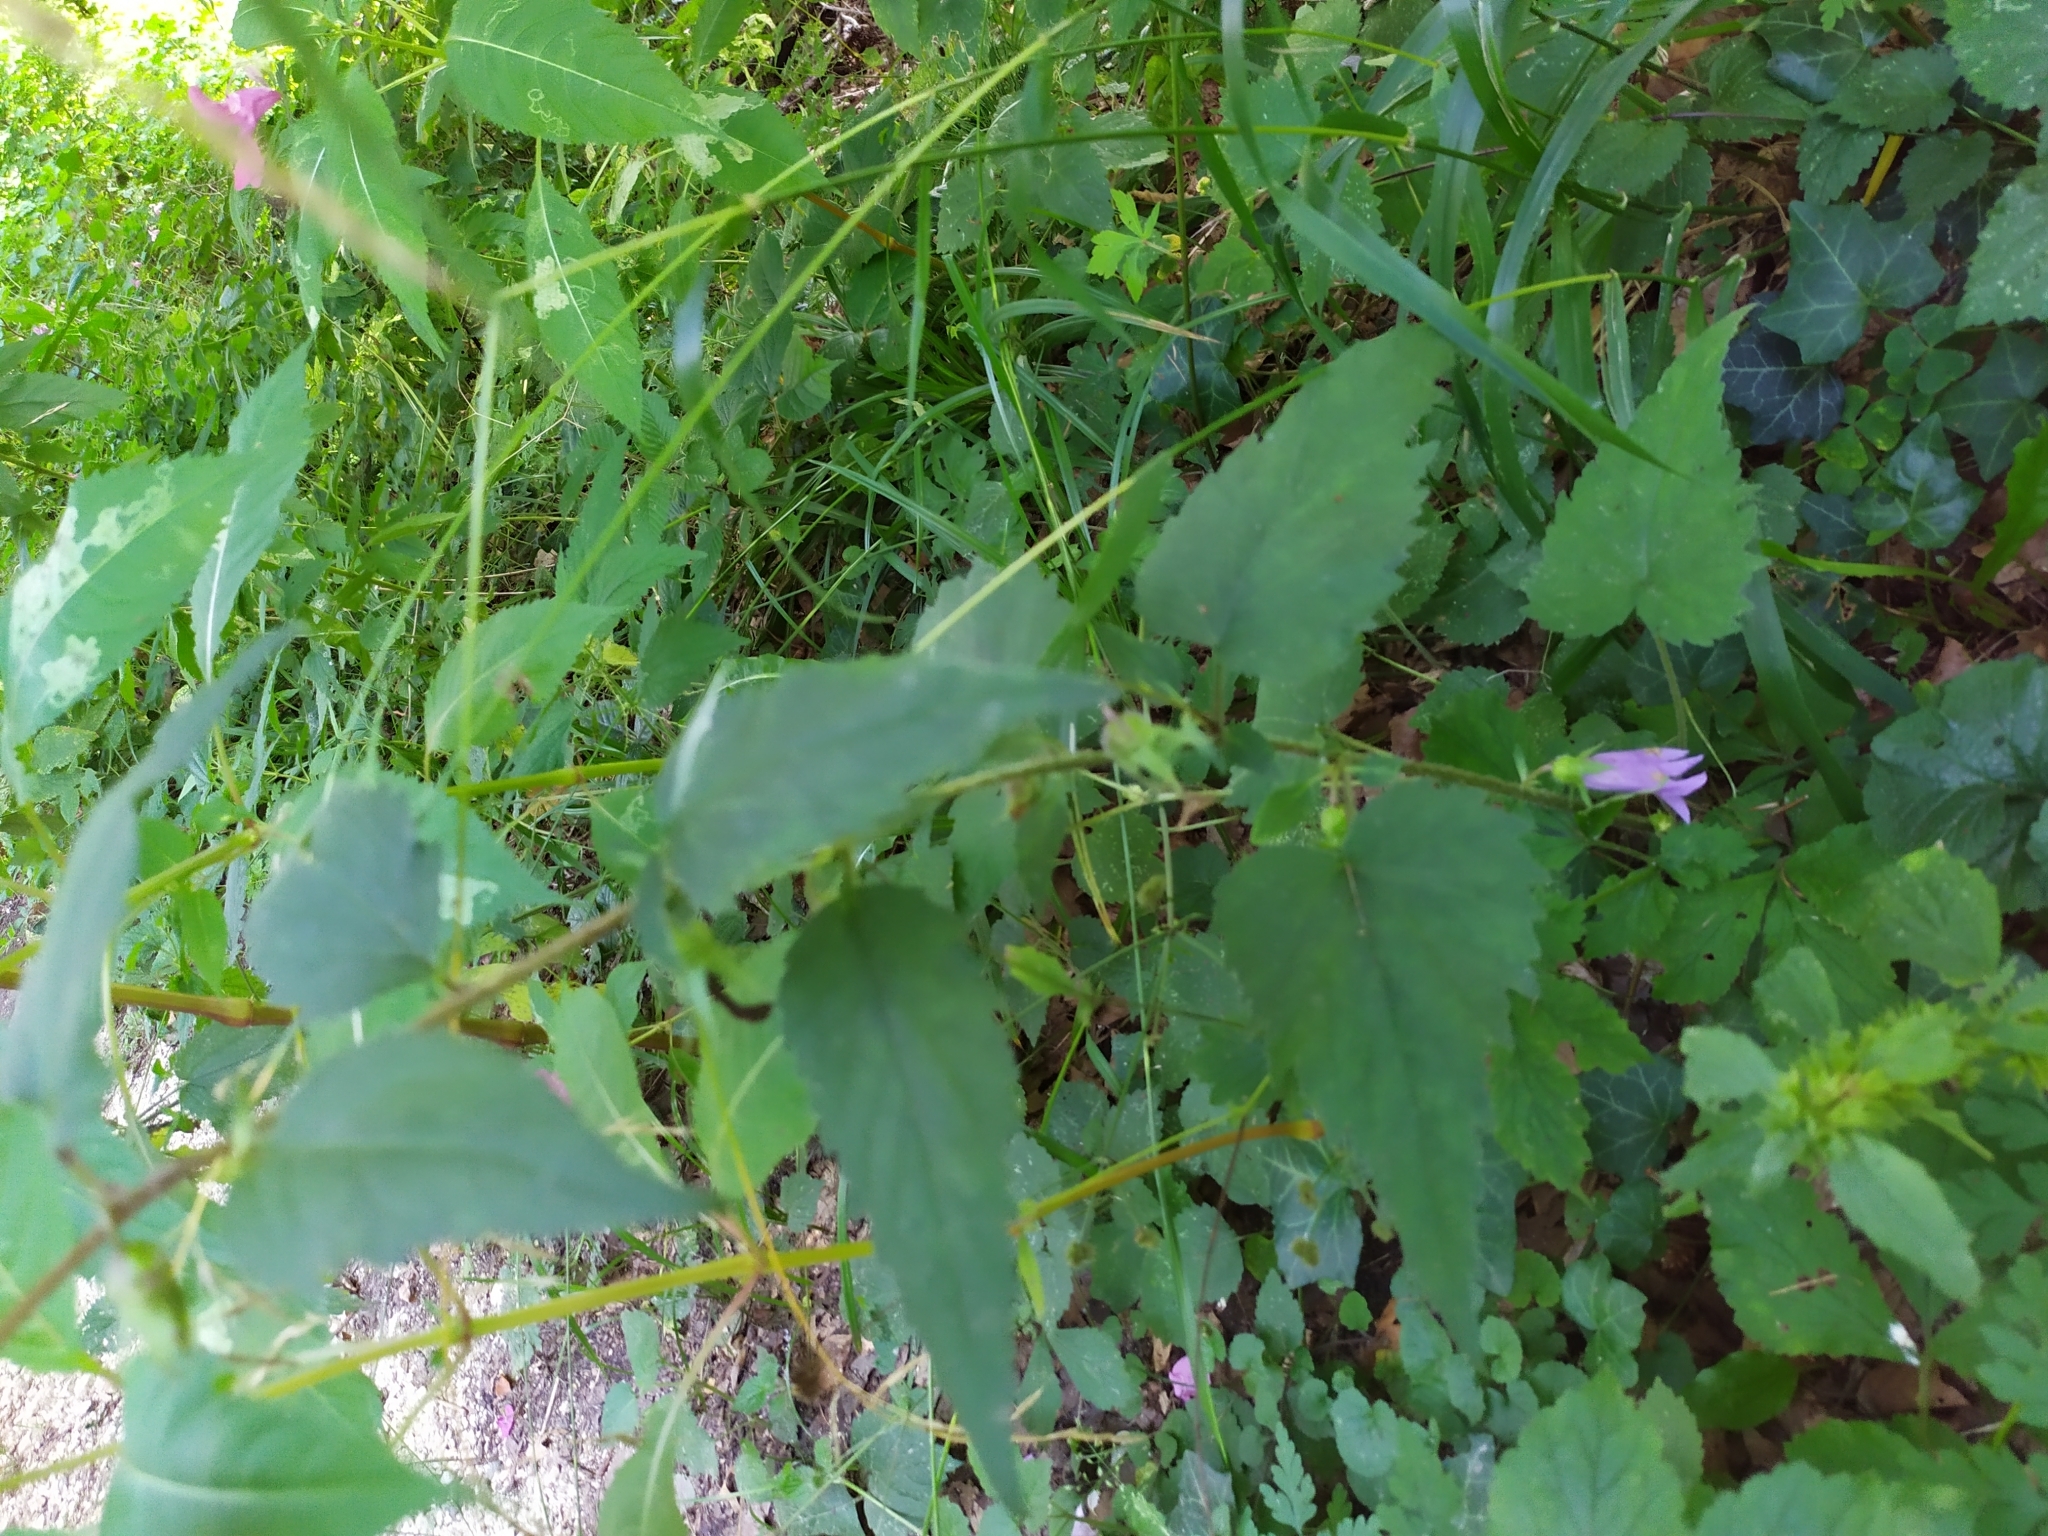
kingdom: Plantae
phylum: Tracheophyta
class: Magnoliopsida
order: Asterales
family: Campanulaceae
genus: Campanula
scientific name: Campanula trachelium
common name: Nettle-leaved bellflower
